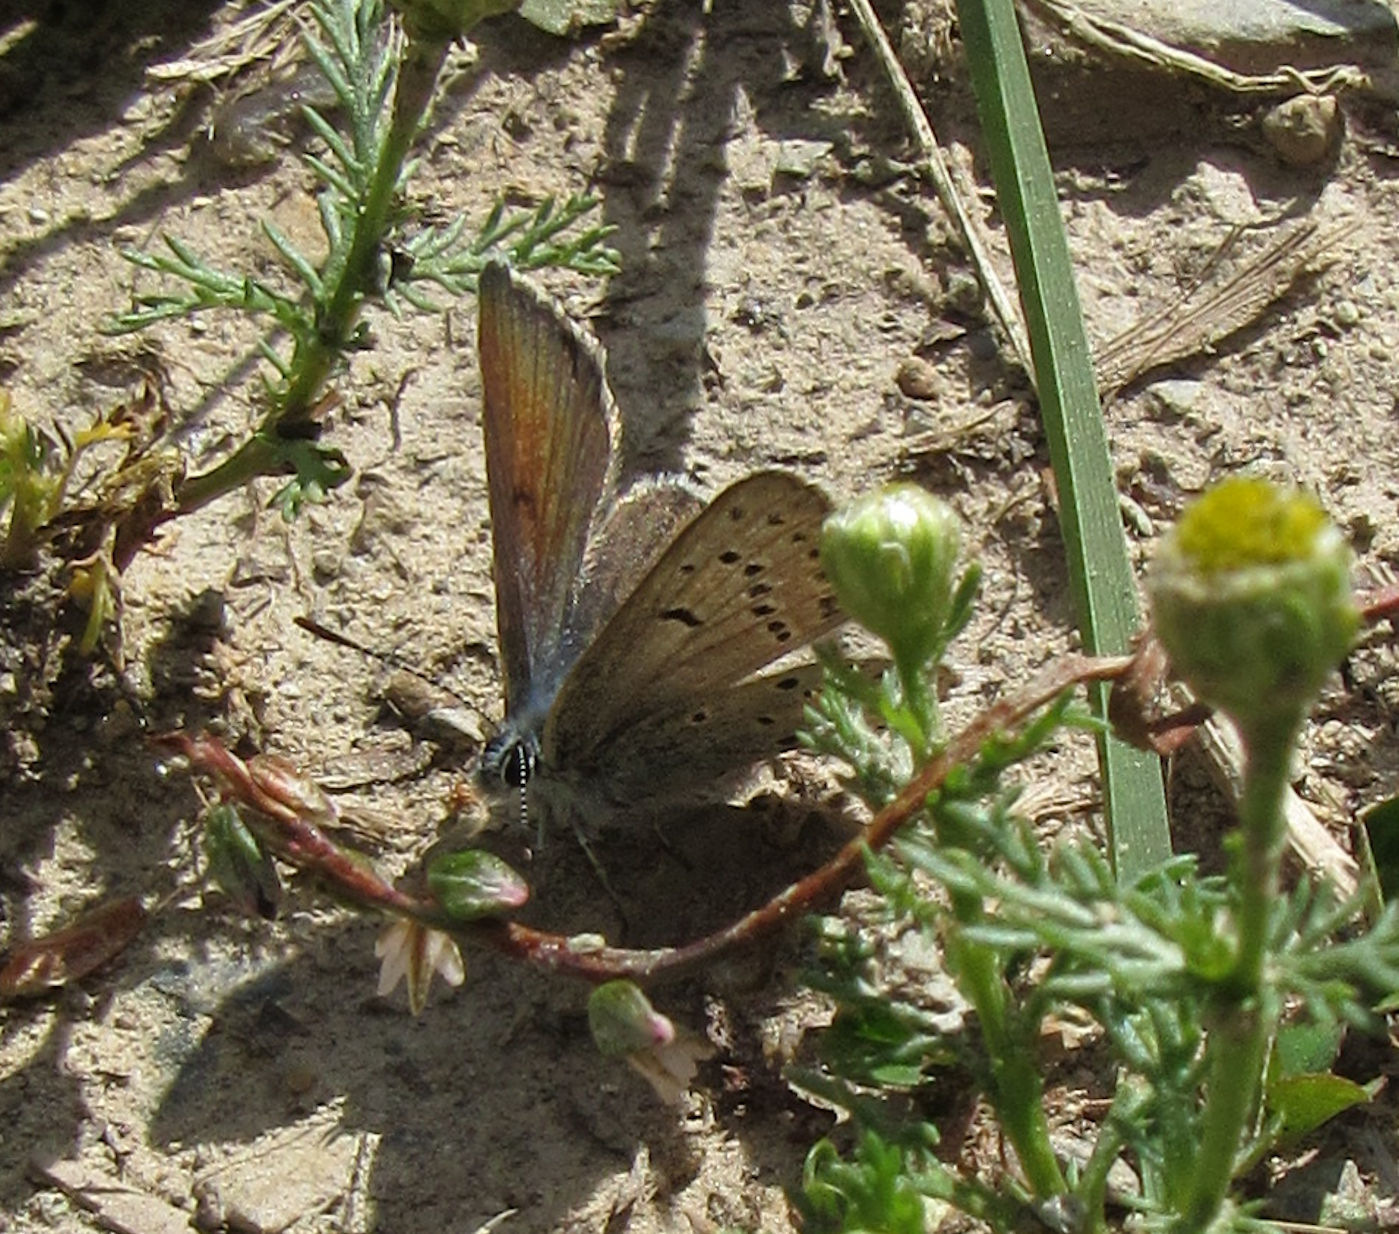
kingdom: Animalia
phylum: Arthropoda
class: Insecta
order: Lepidoptera
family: Lycaenidae
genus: Icaricia
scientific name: Icaricia saepiolus
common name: Greenish blue
